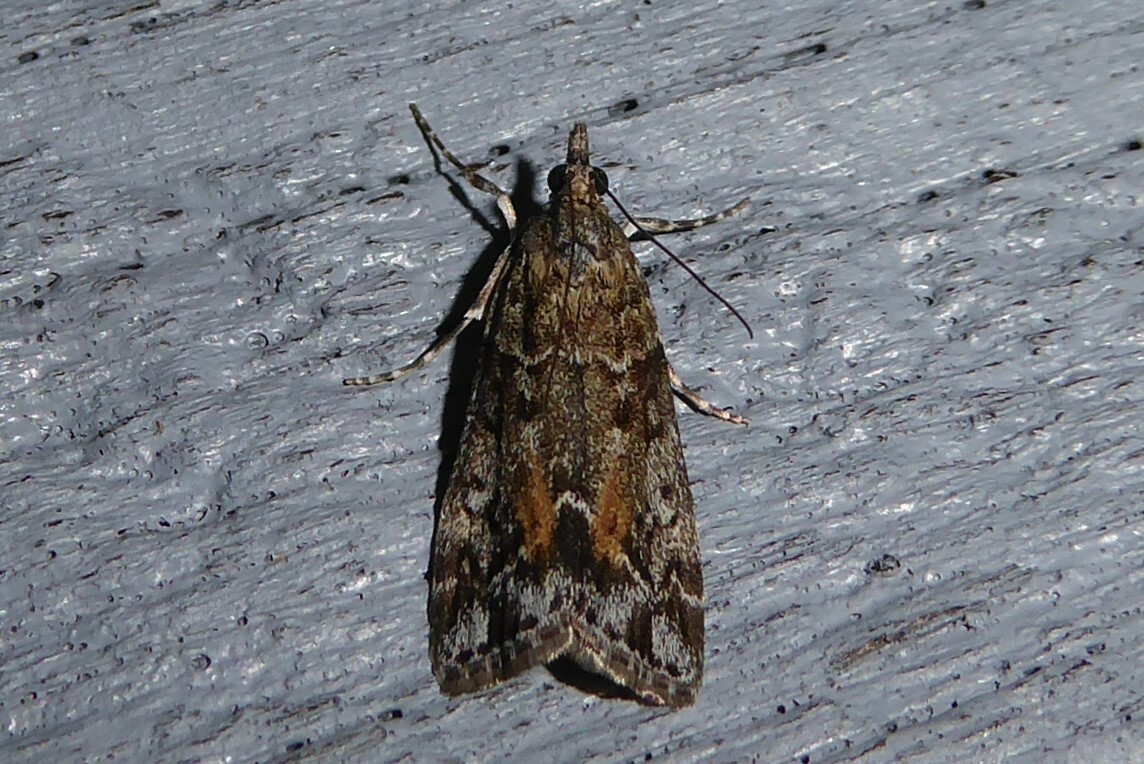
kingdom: Animalia
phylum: Arthropoda
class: Insecta
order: Lepidoptera
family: Crambidae
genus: Eudonia
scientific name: Eudonia submarginalis
